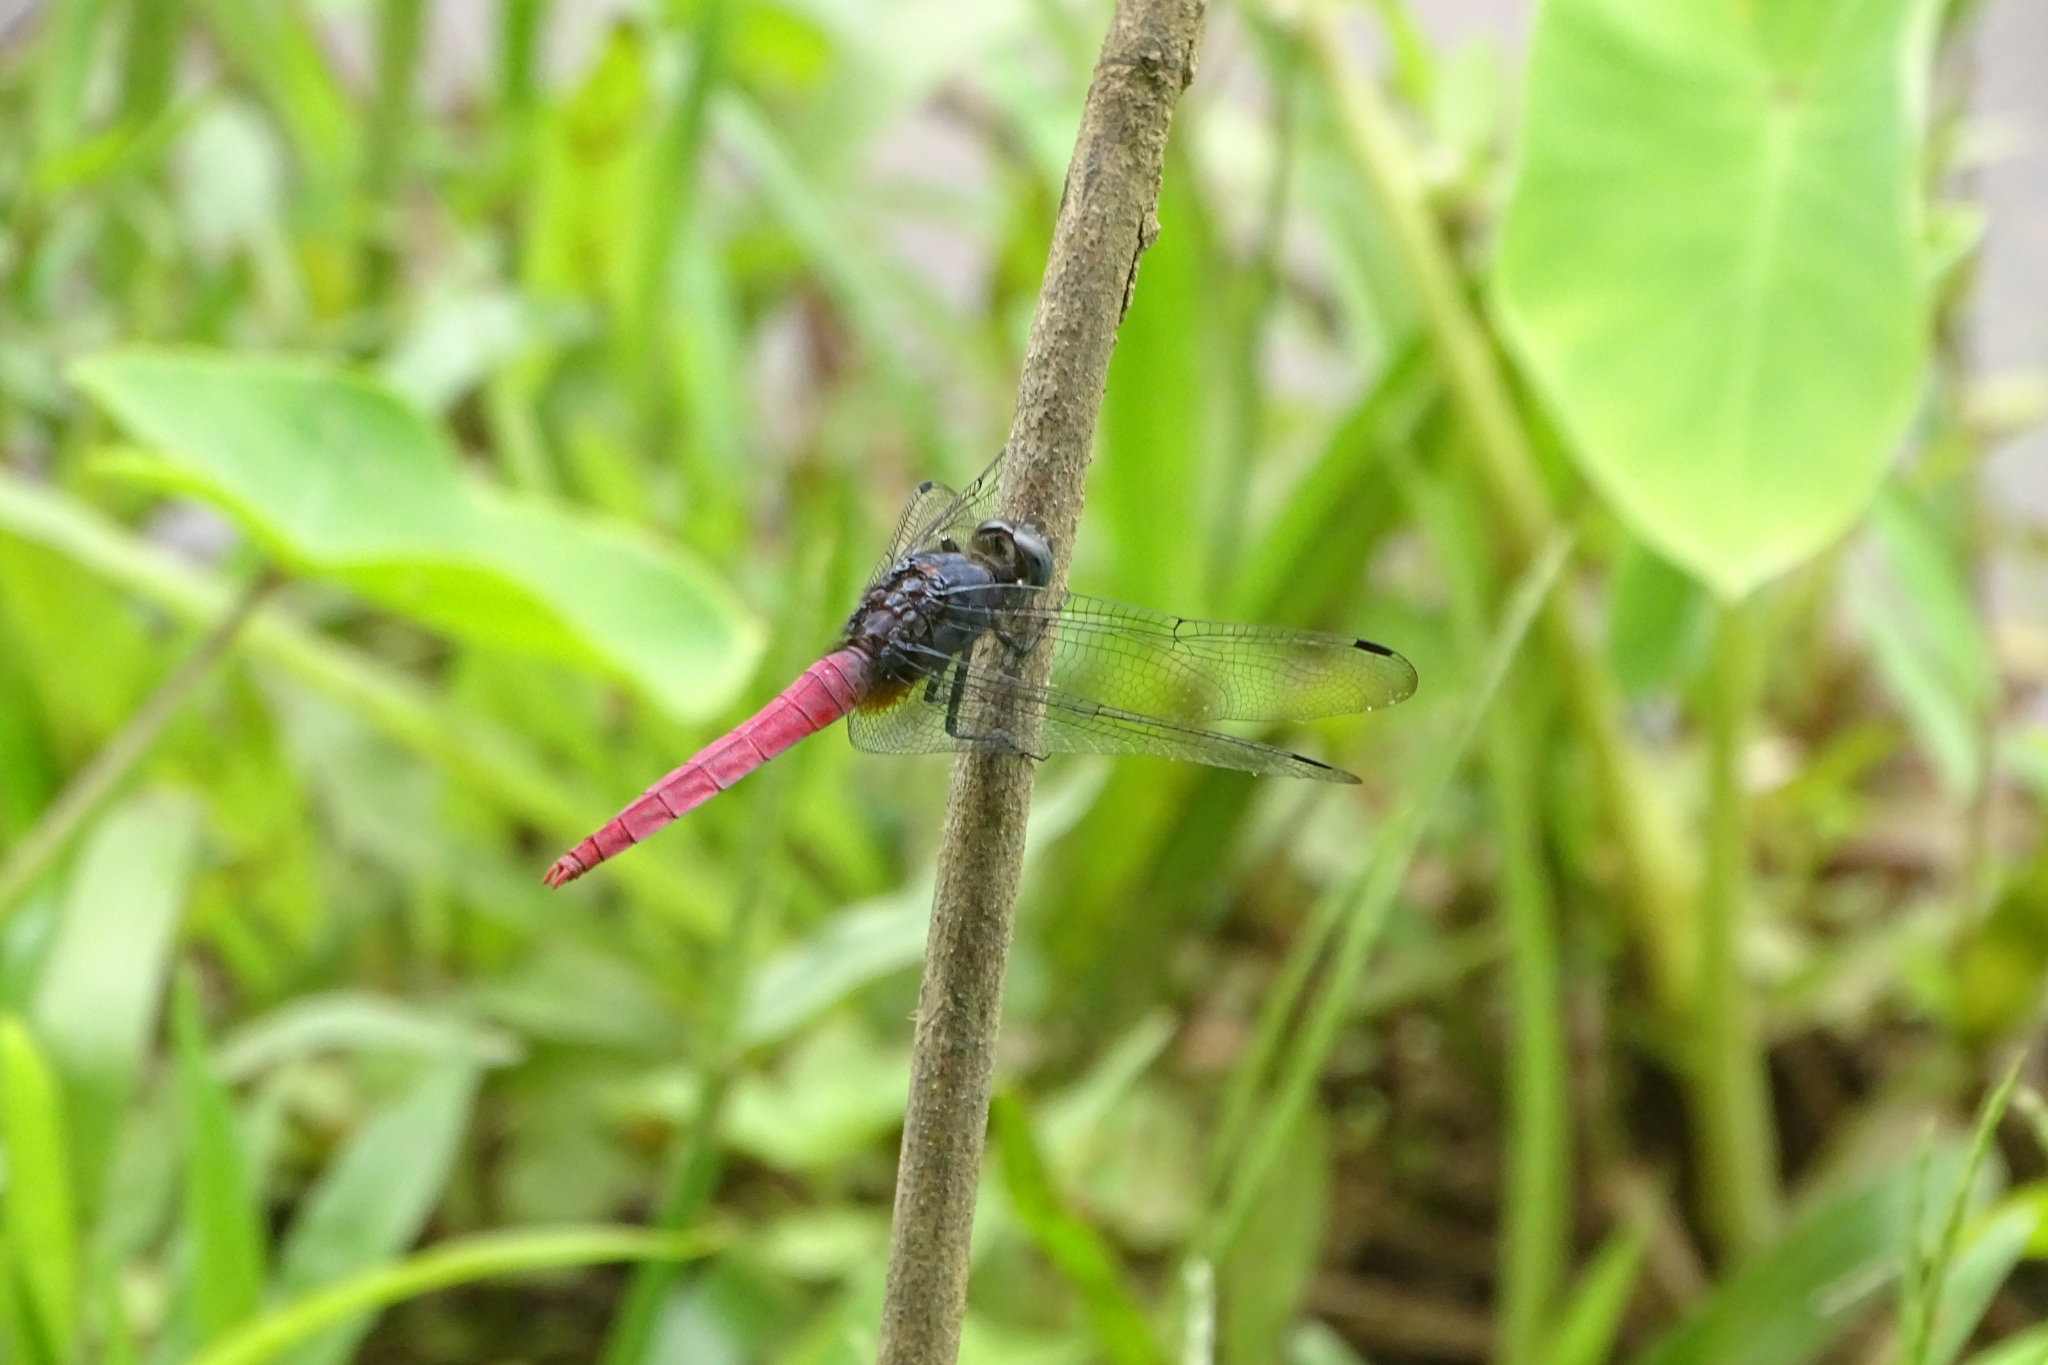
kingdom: Animalia
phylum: Arthropoda
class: Insecta
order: Odonata
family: Libellulidae
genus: Orthetrum
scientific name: Orthetrum pruinosum
